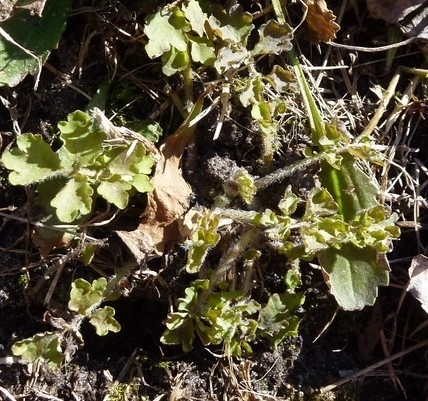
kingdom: Plantae
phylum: Tracheophyta
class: Magnoliopsida
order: Ranunculales
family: Papaveraceae
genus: Chelidonium
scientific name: Chelidonium majus
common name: Greater celandine
